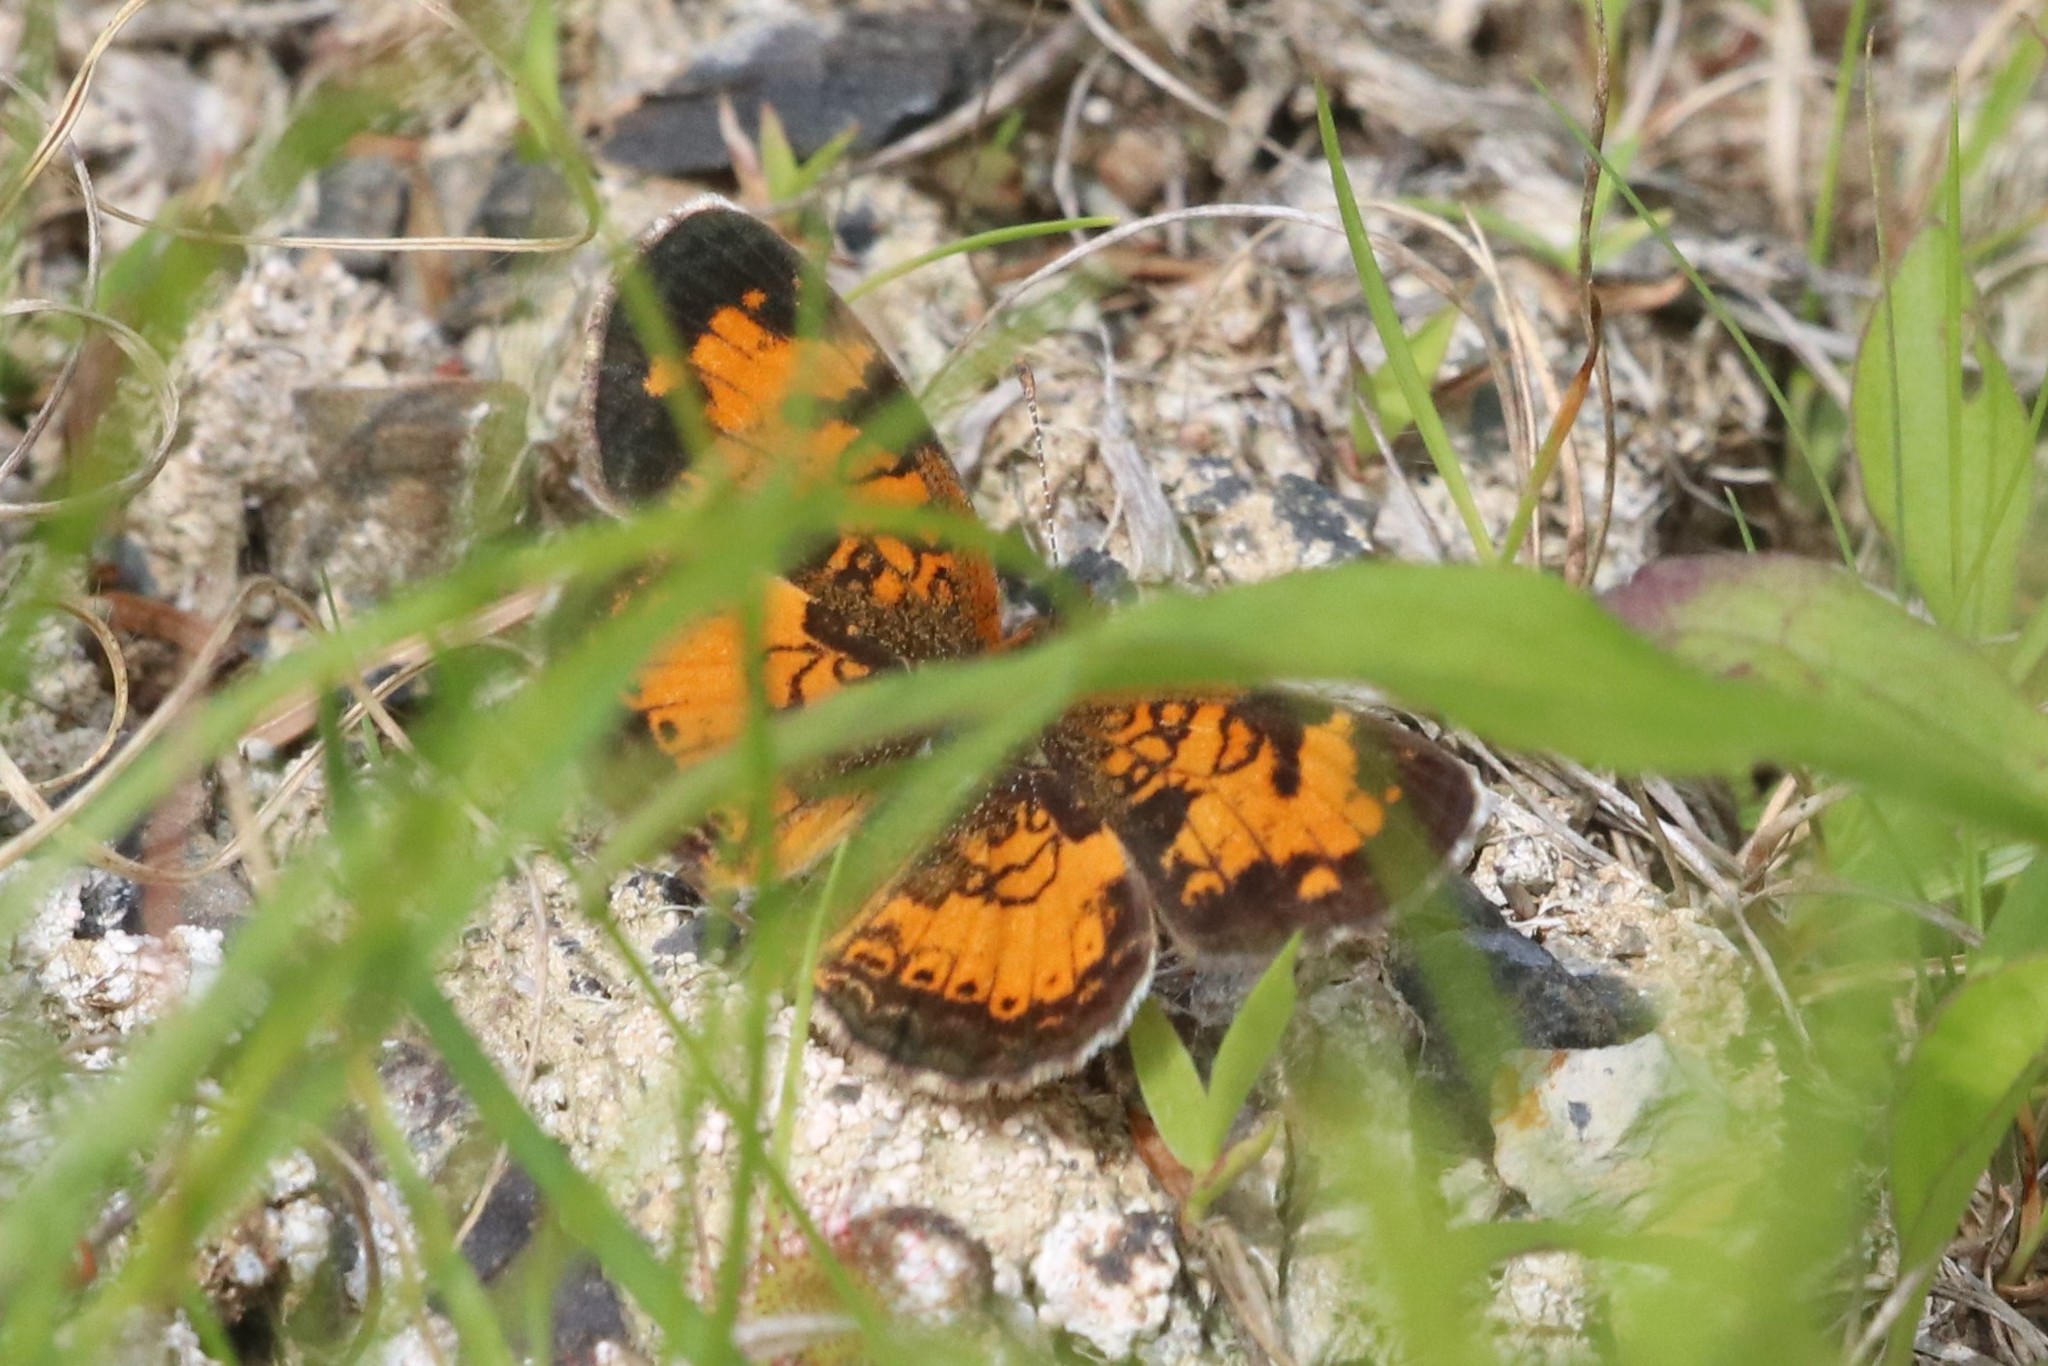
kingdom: Animalia
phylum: Arthropoda
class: Insecta
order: Lepidoptera
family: Nymphalidae
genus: Phyciodes
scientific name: Phyciodes tharos
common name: Pearl crescent
